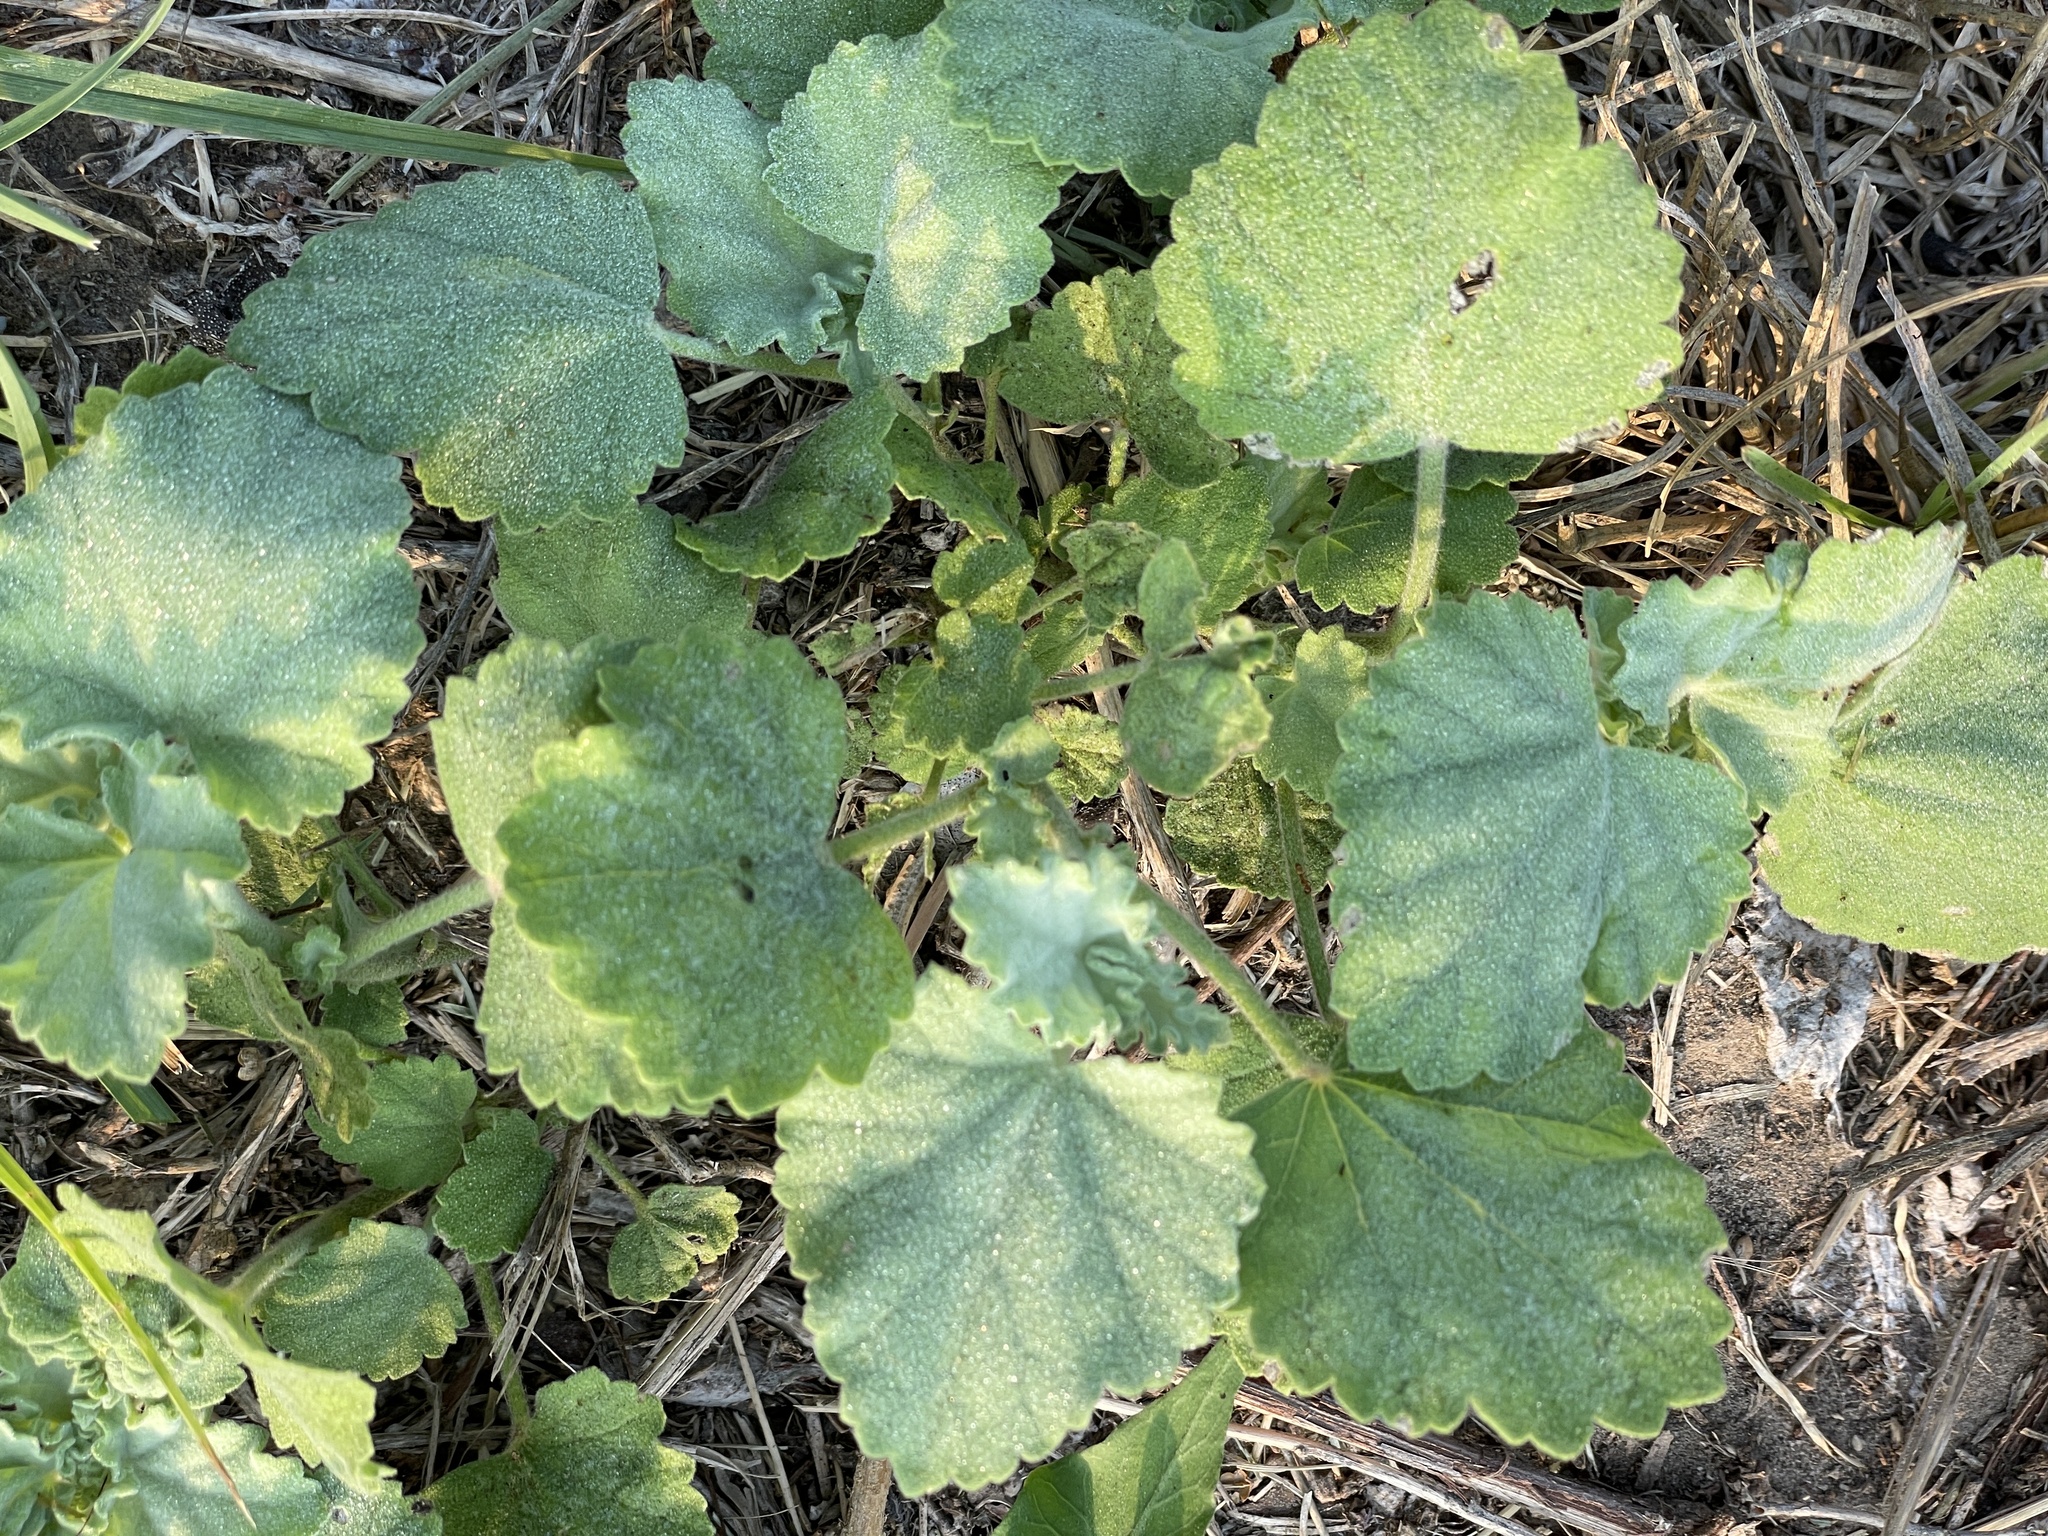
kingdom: Plantae
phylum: Tracheophyta
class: Magnoliopsida
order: Malvales
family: Malvaceae
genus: Sphaeralcea
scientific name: Sphaeralcea lindheimeri
